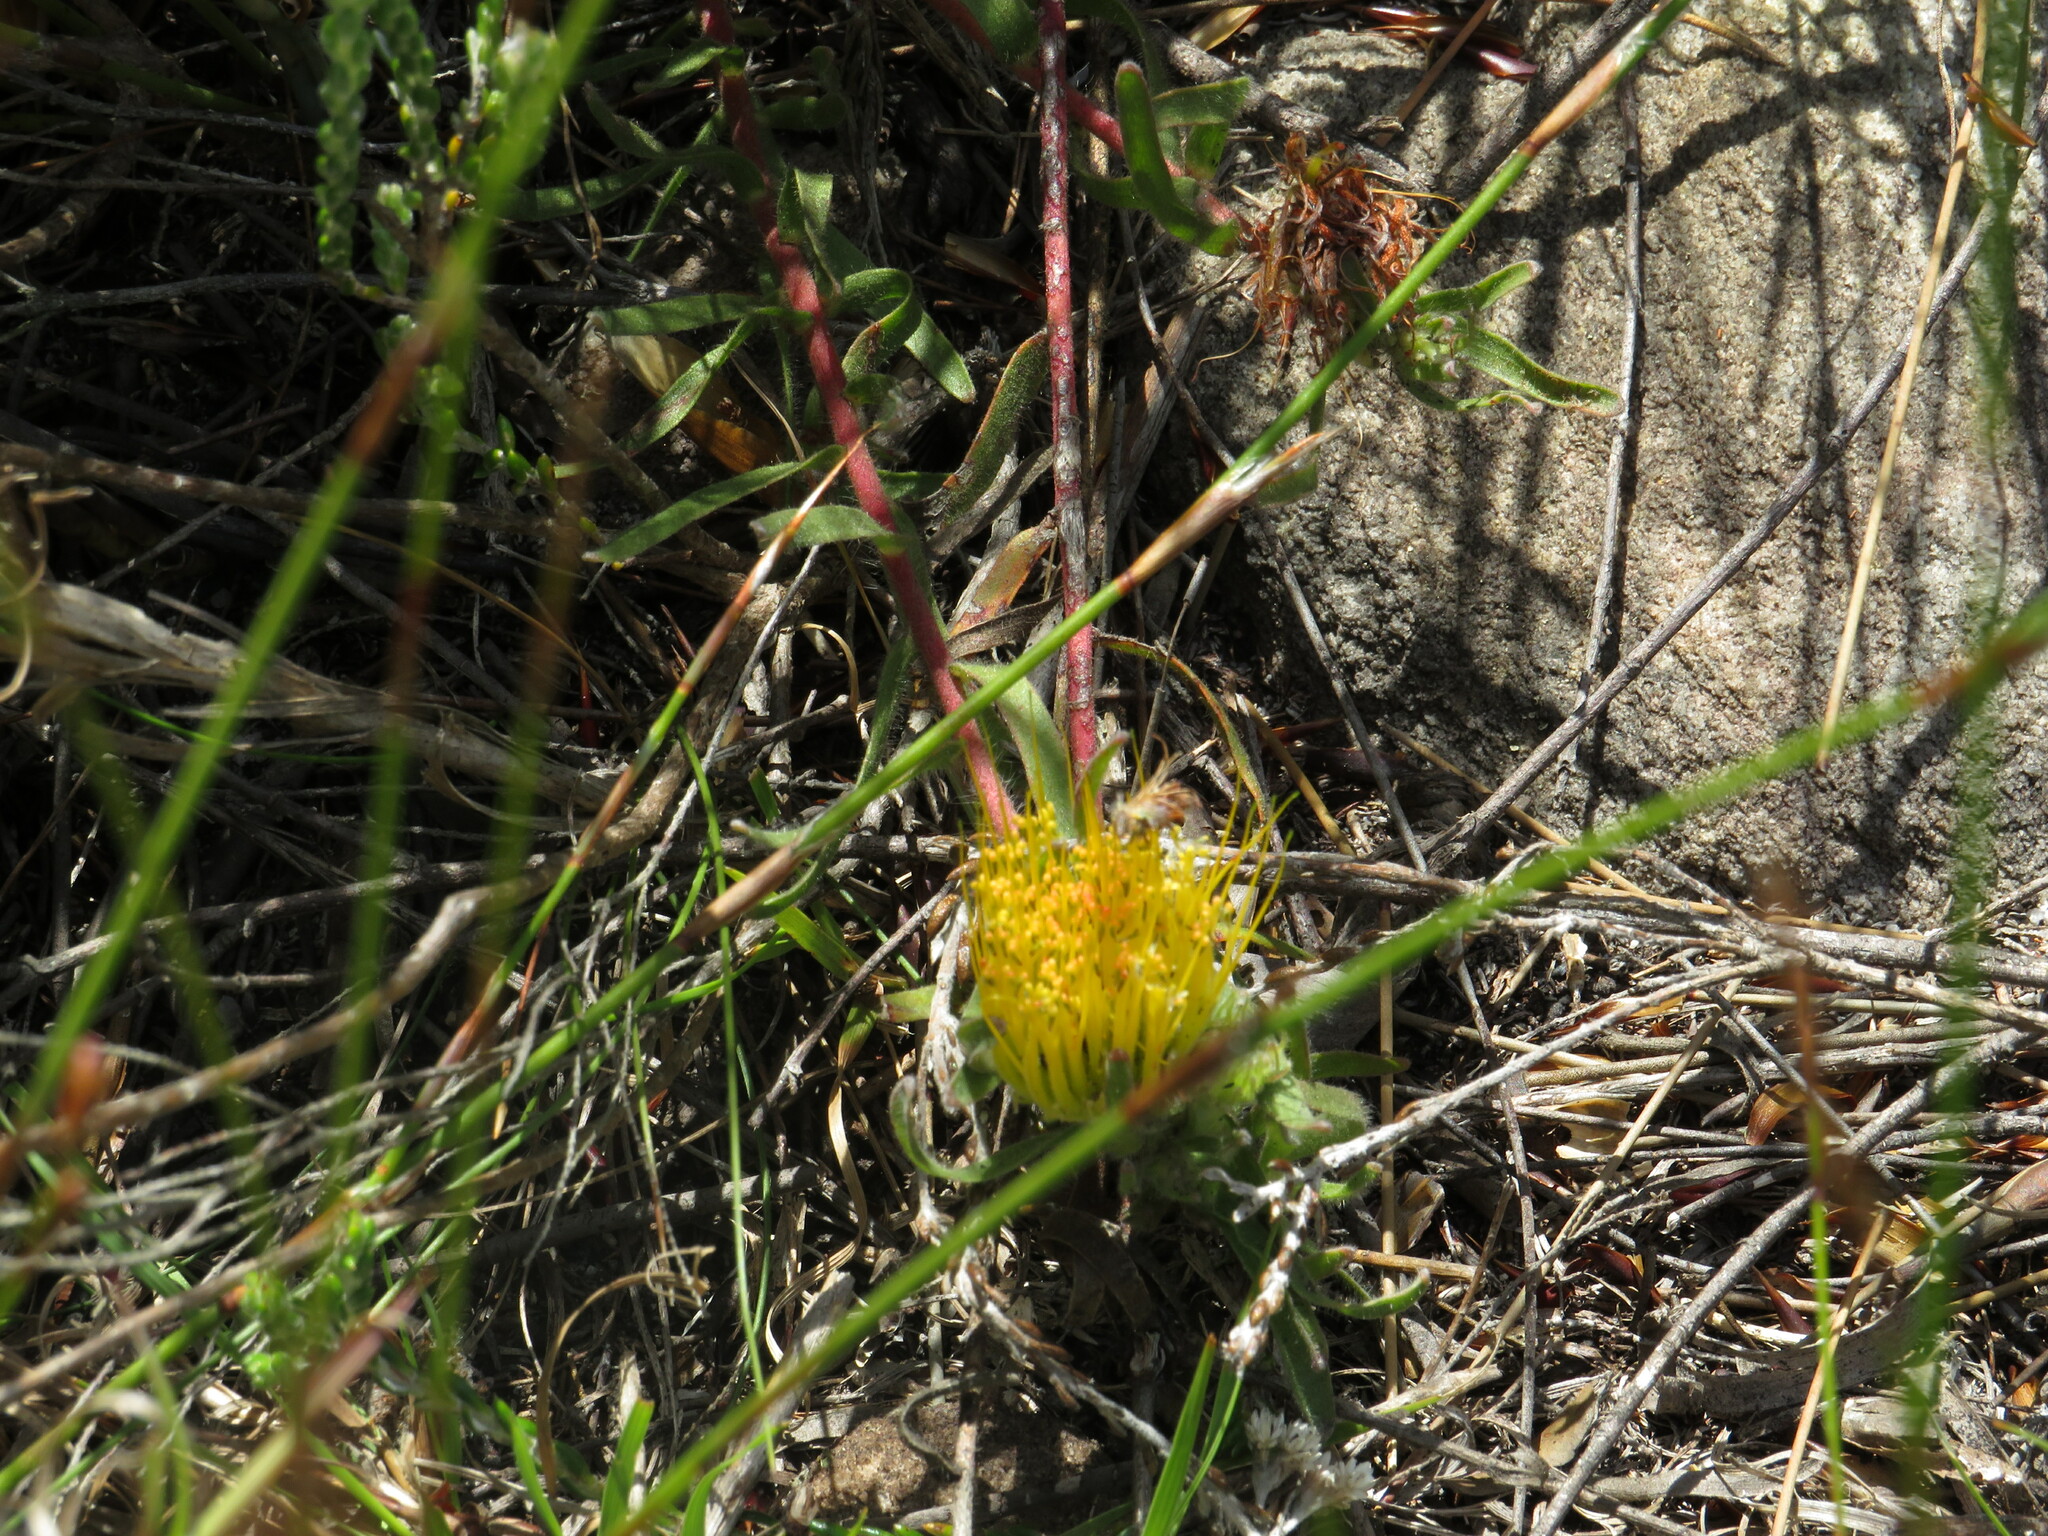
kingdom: Plantae
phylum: Tracheophyta
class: Magnoliopsida
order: Proteales
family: Proteaceae
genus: Leucospermum
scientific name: Leucospermum gracile
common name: Hermanus pincushion
